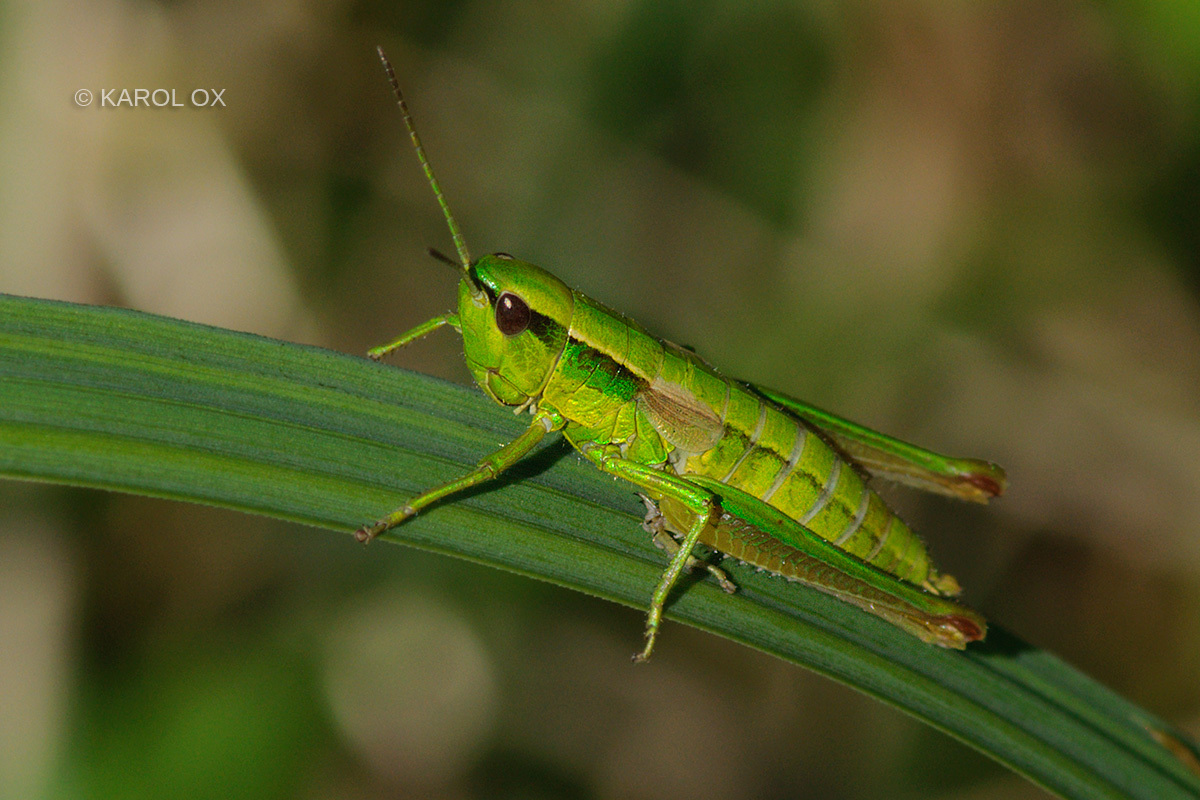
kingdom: Animalia
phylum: Arthropoda
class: Insecta
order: Orthoptera
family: Acrididae
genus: Euthystira
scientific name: Euthystira brachyptera
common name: Small gold grasshopper
